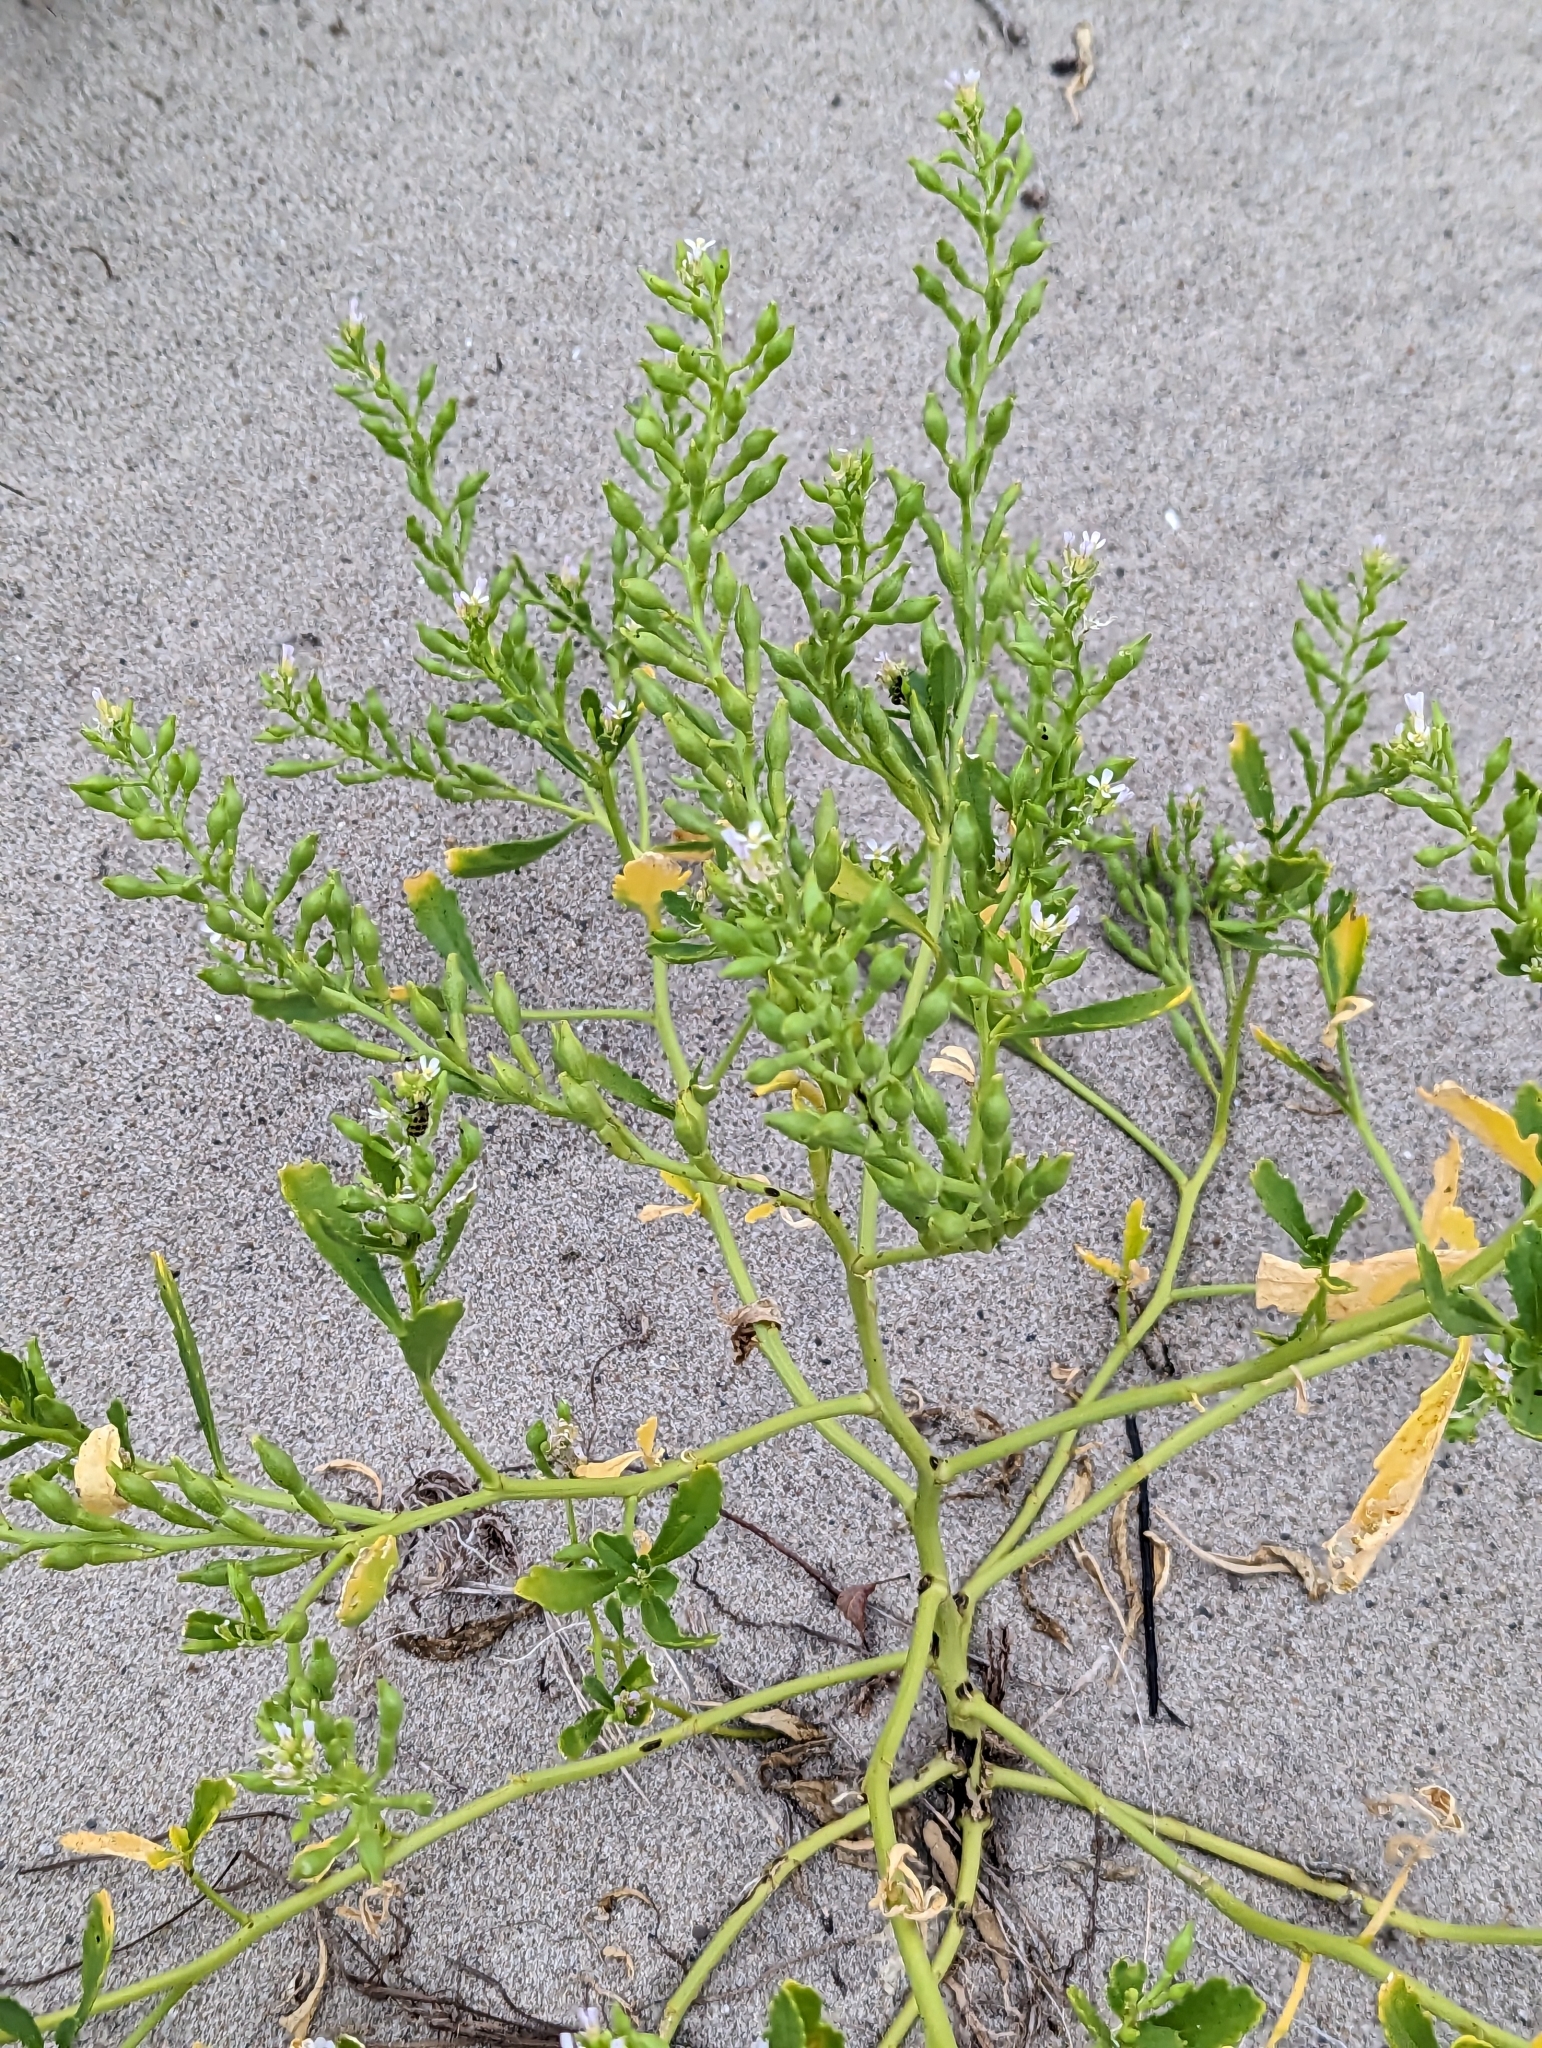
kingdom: Plantae
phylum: Tracheophyta
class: Magnoliopsida
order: Brassicales
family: Brassicaceae
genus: Cakile
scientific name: Cakile edentula
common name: American sea rocket
